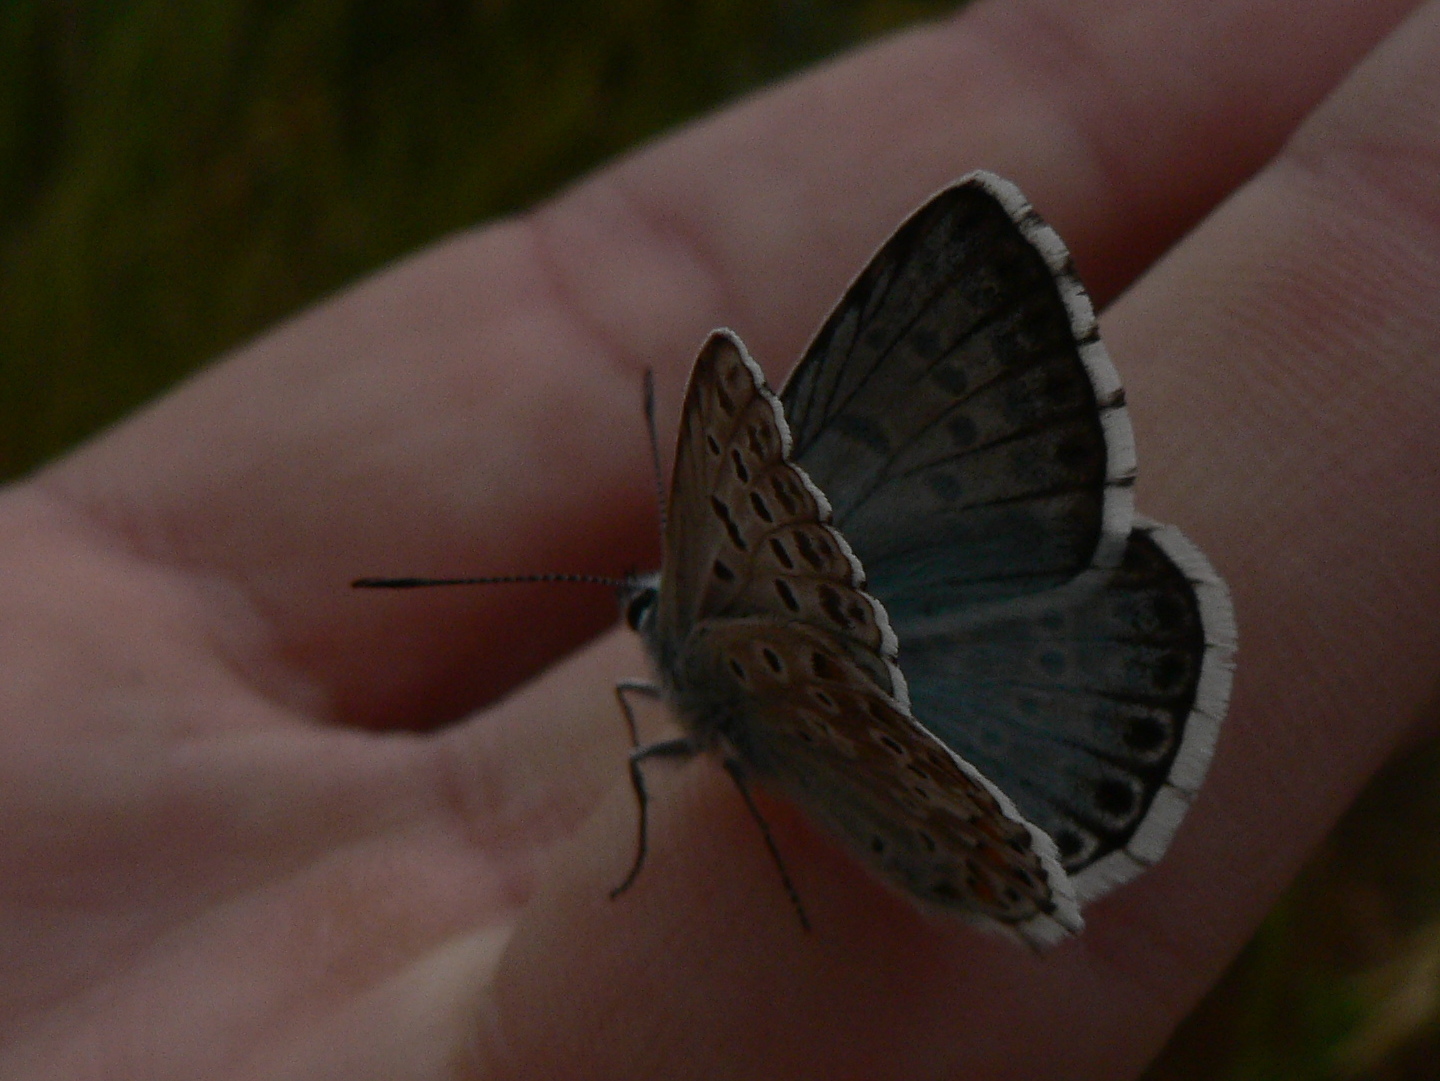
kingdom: Animalia
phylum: Arthropoda
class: Insecta
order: Lepidoptera
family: Lycaenidae
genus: Lysandra
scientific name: Lysandra hispana
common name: Provence chalkhill blue
